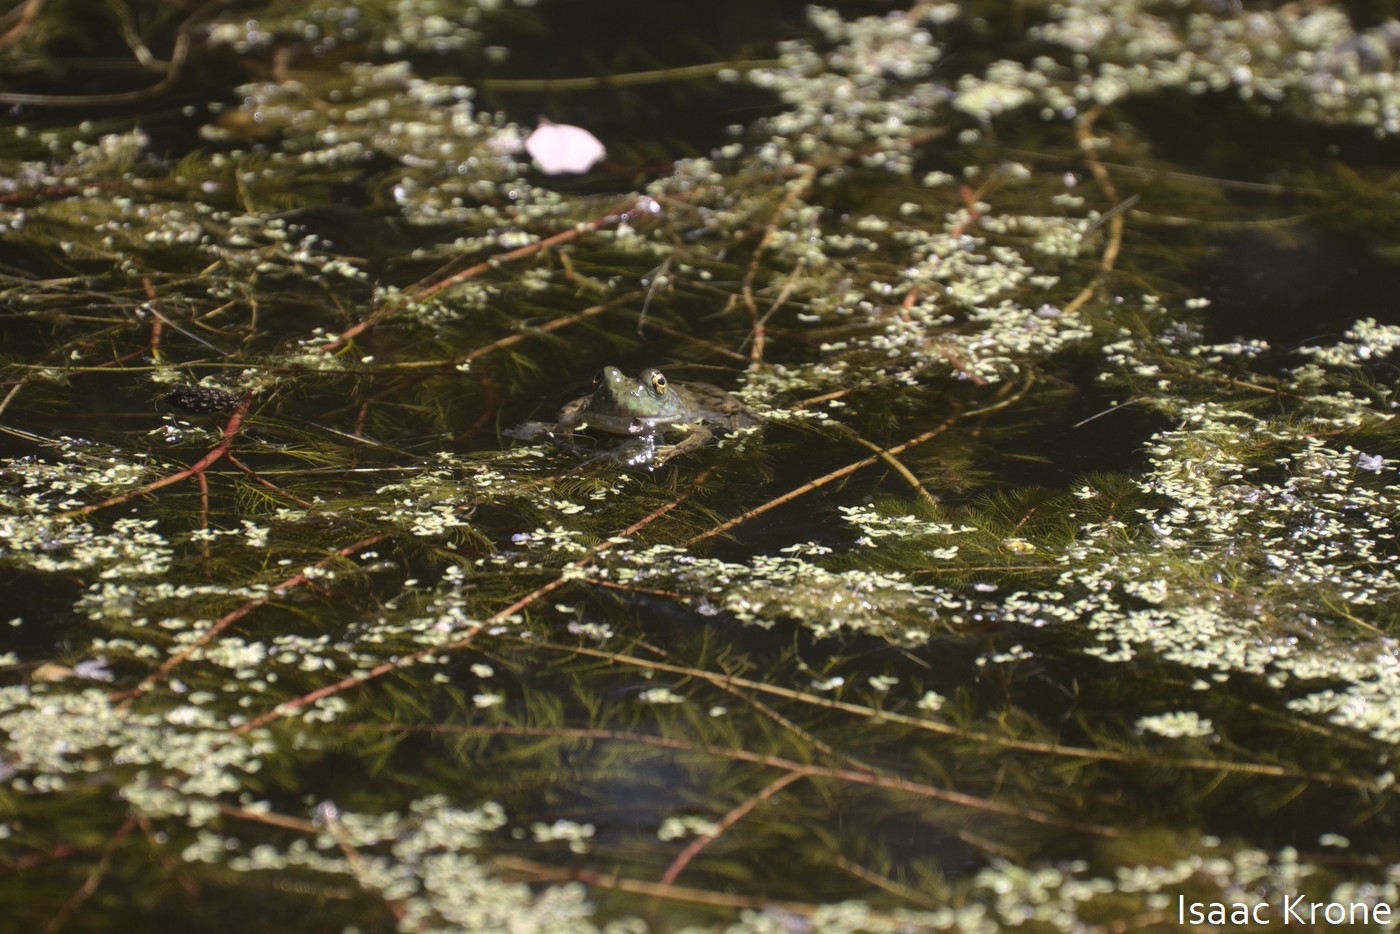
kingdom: Animalia
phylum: Chordata
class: Amphibia
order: Anura
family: Ranidae
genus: Lithobates
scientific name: Lithobates catesbeianus
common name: American bullfrog
